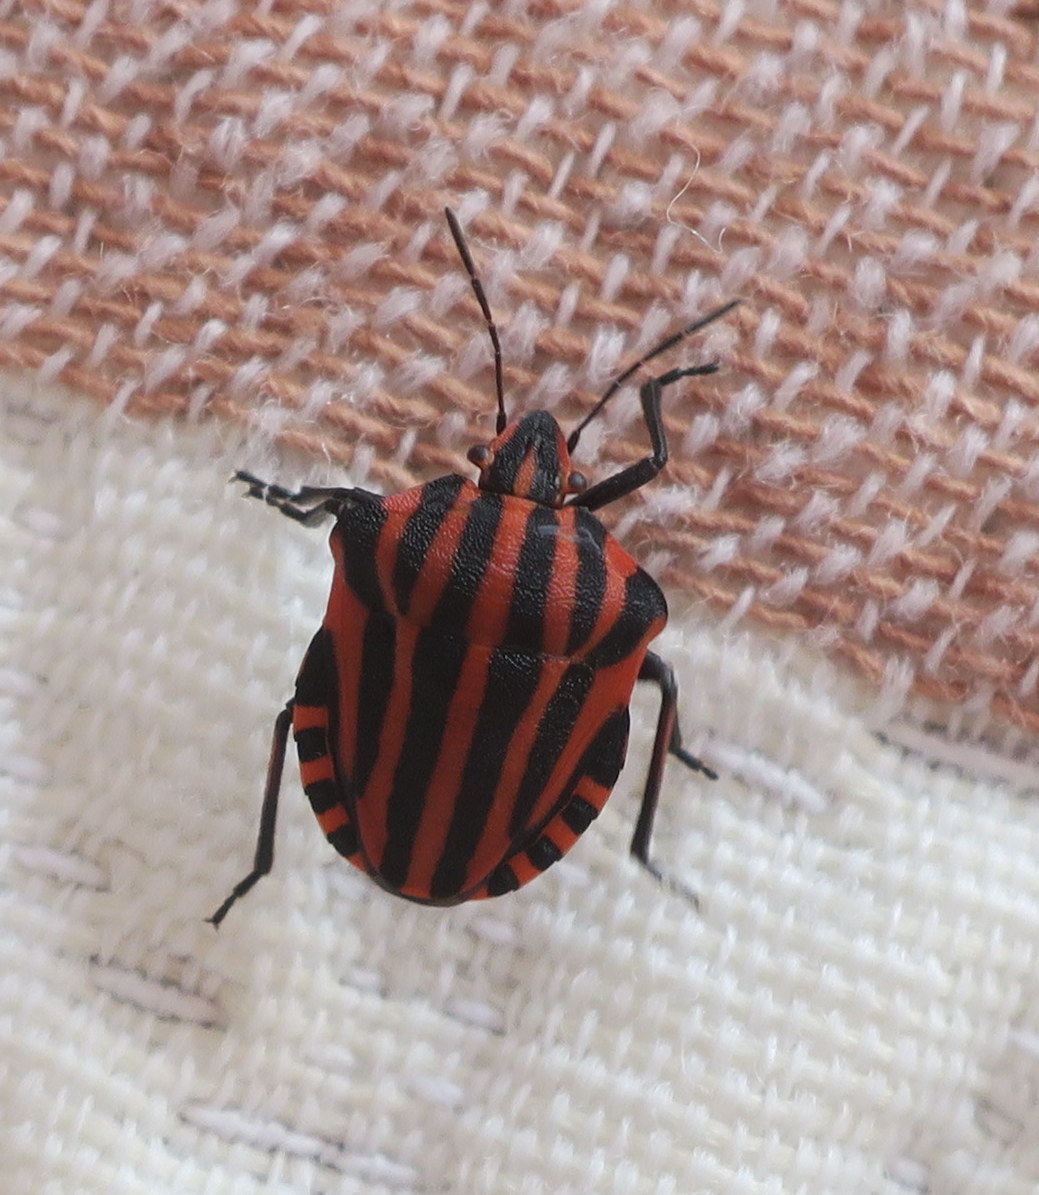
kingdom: Animalia
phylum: Arthropoda
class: Insecta
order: Hemiptera
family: Pentatomidae
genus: Graphosoma
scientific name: Graphosoma italicum
